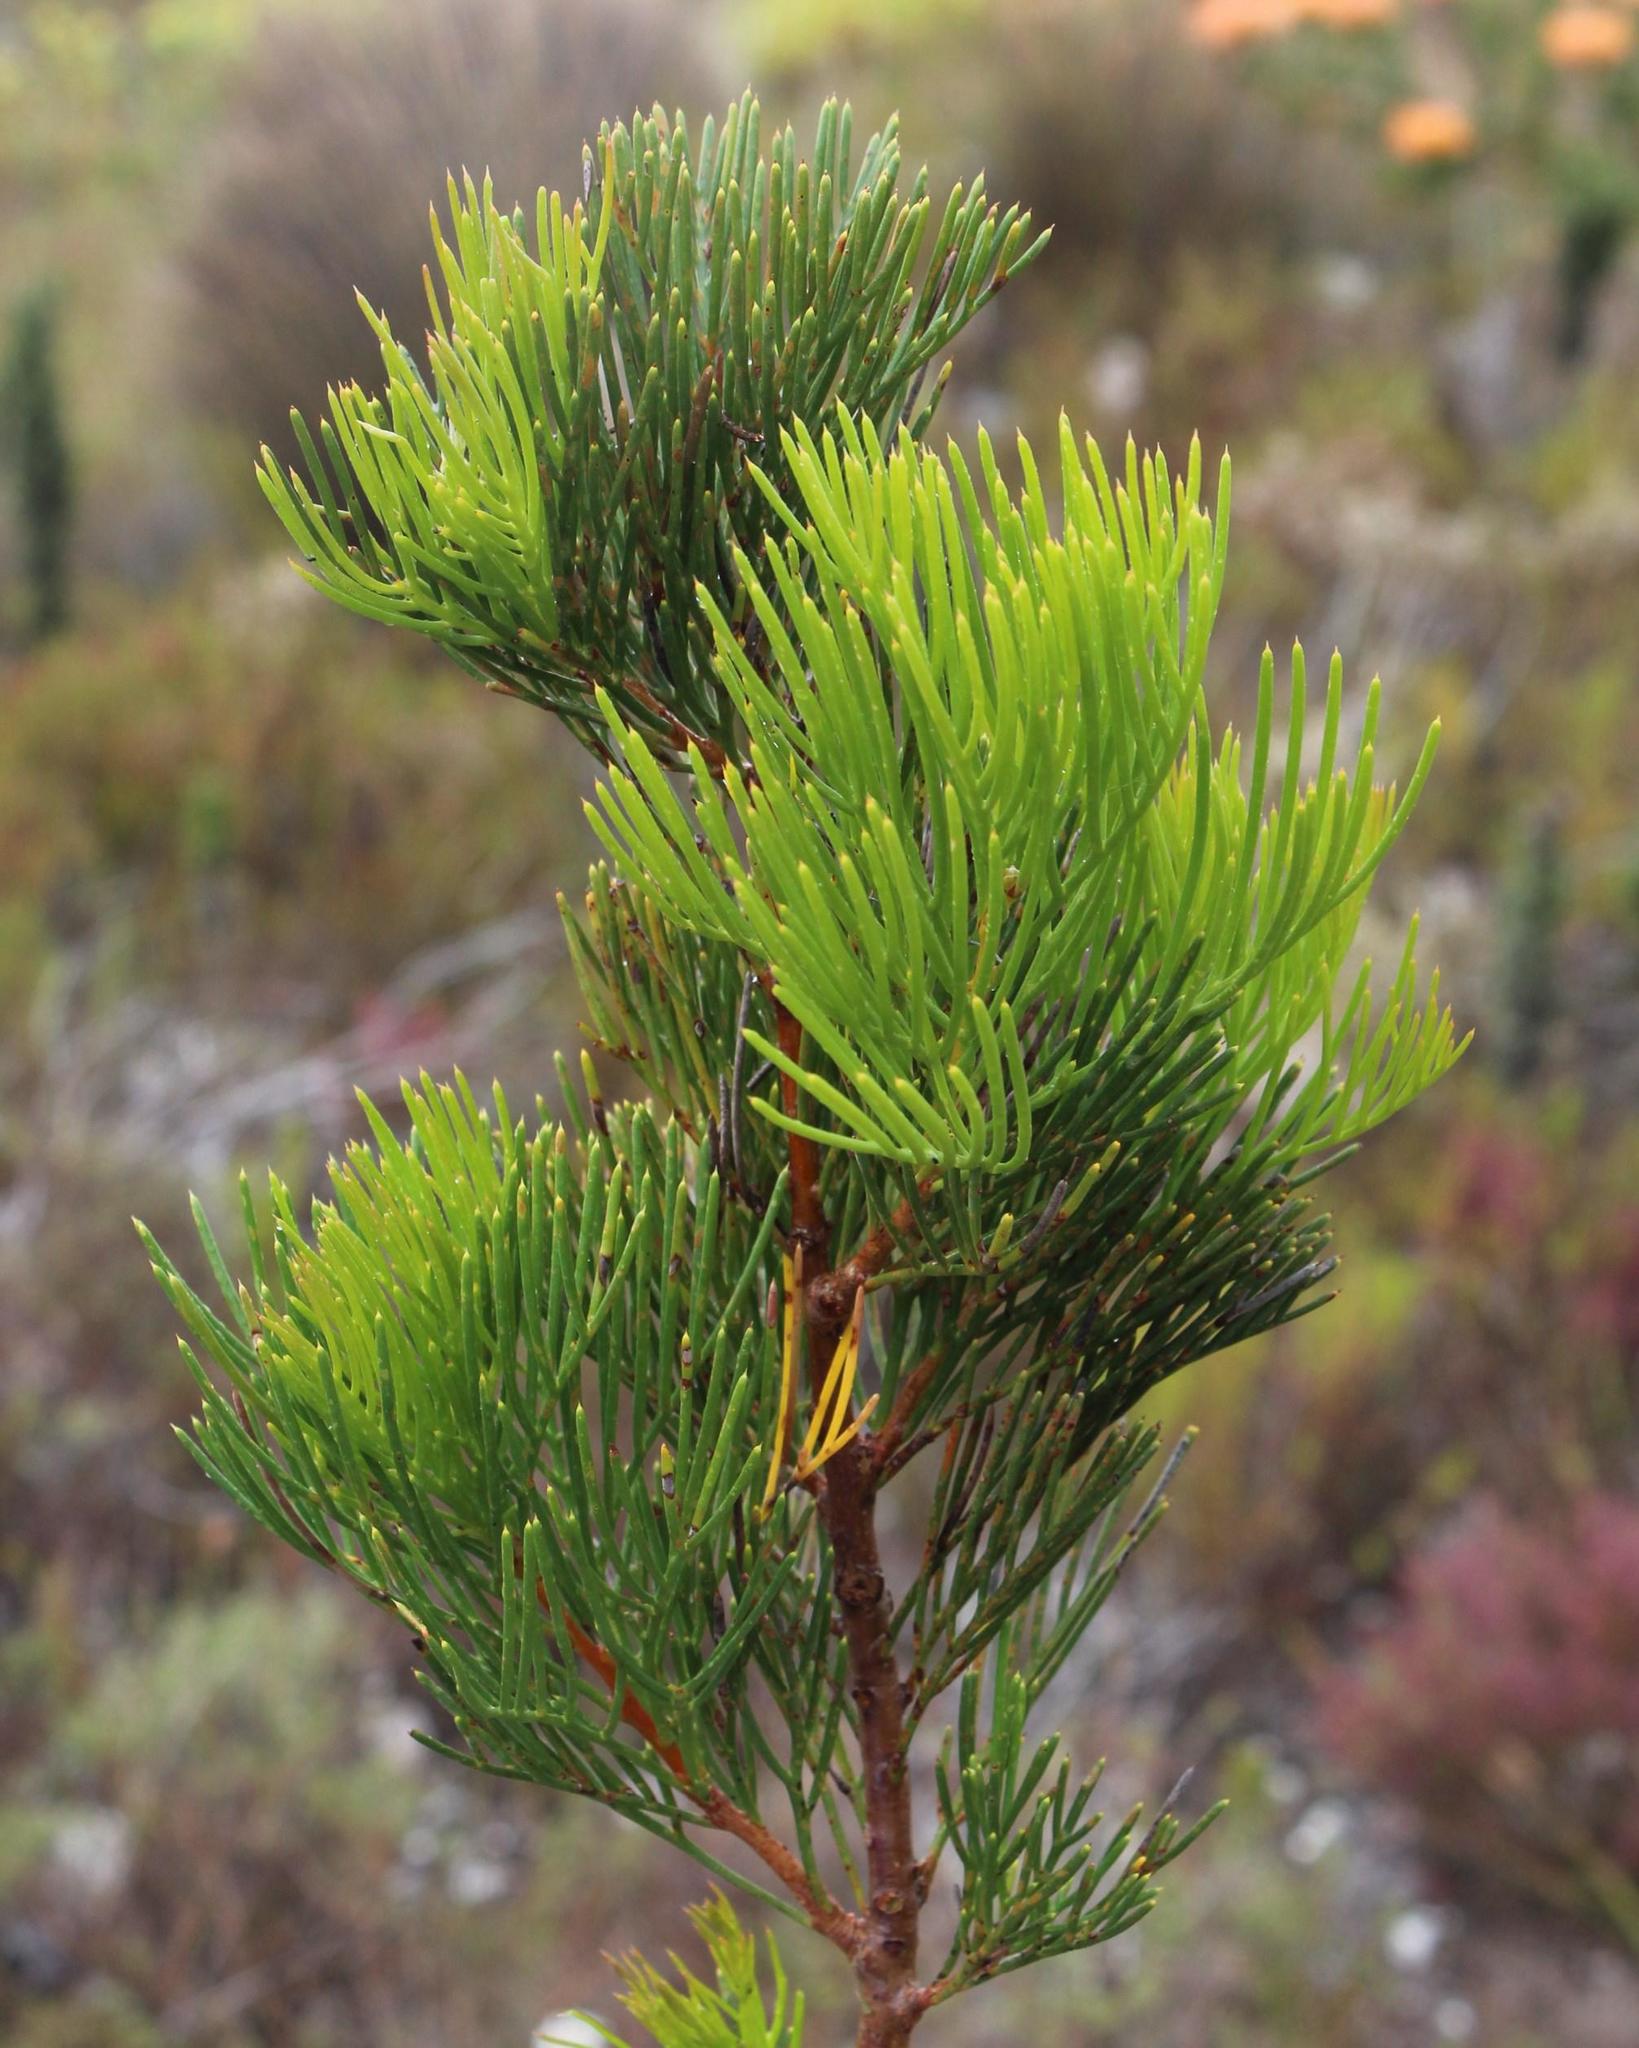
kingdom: Plantae
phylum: Tracheophyta
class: Magnoliopsida
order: Proteales
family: Proteaceae
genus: Hakea
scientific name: Hakea drupacea
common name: Sweet hakea
